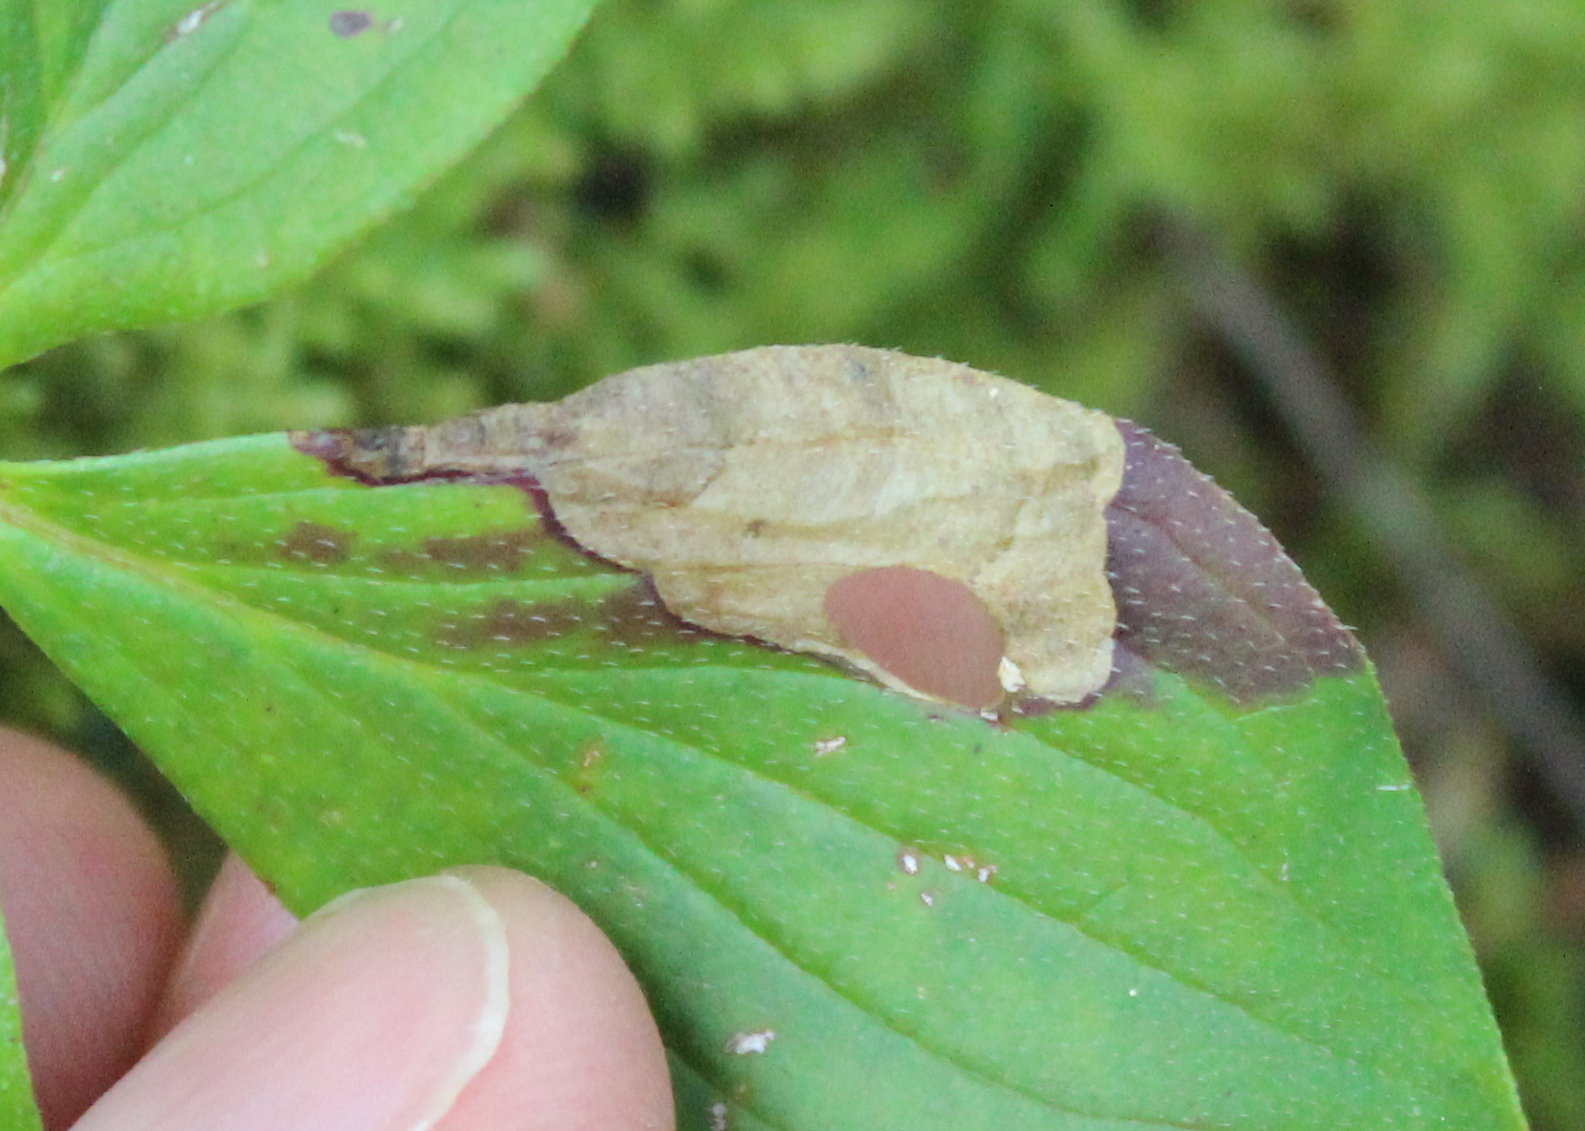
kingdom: Animalia
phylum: Arthropoda
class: Insecta
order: Lepidoptera
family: Heliozelidae
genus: Antispila
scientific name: Antispila freemani
